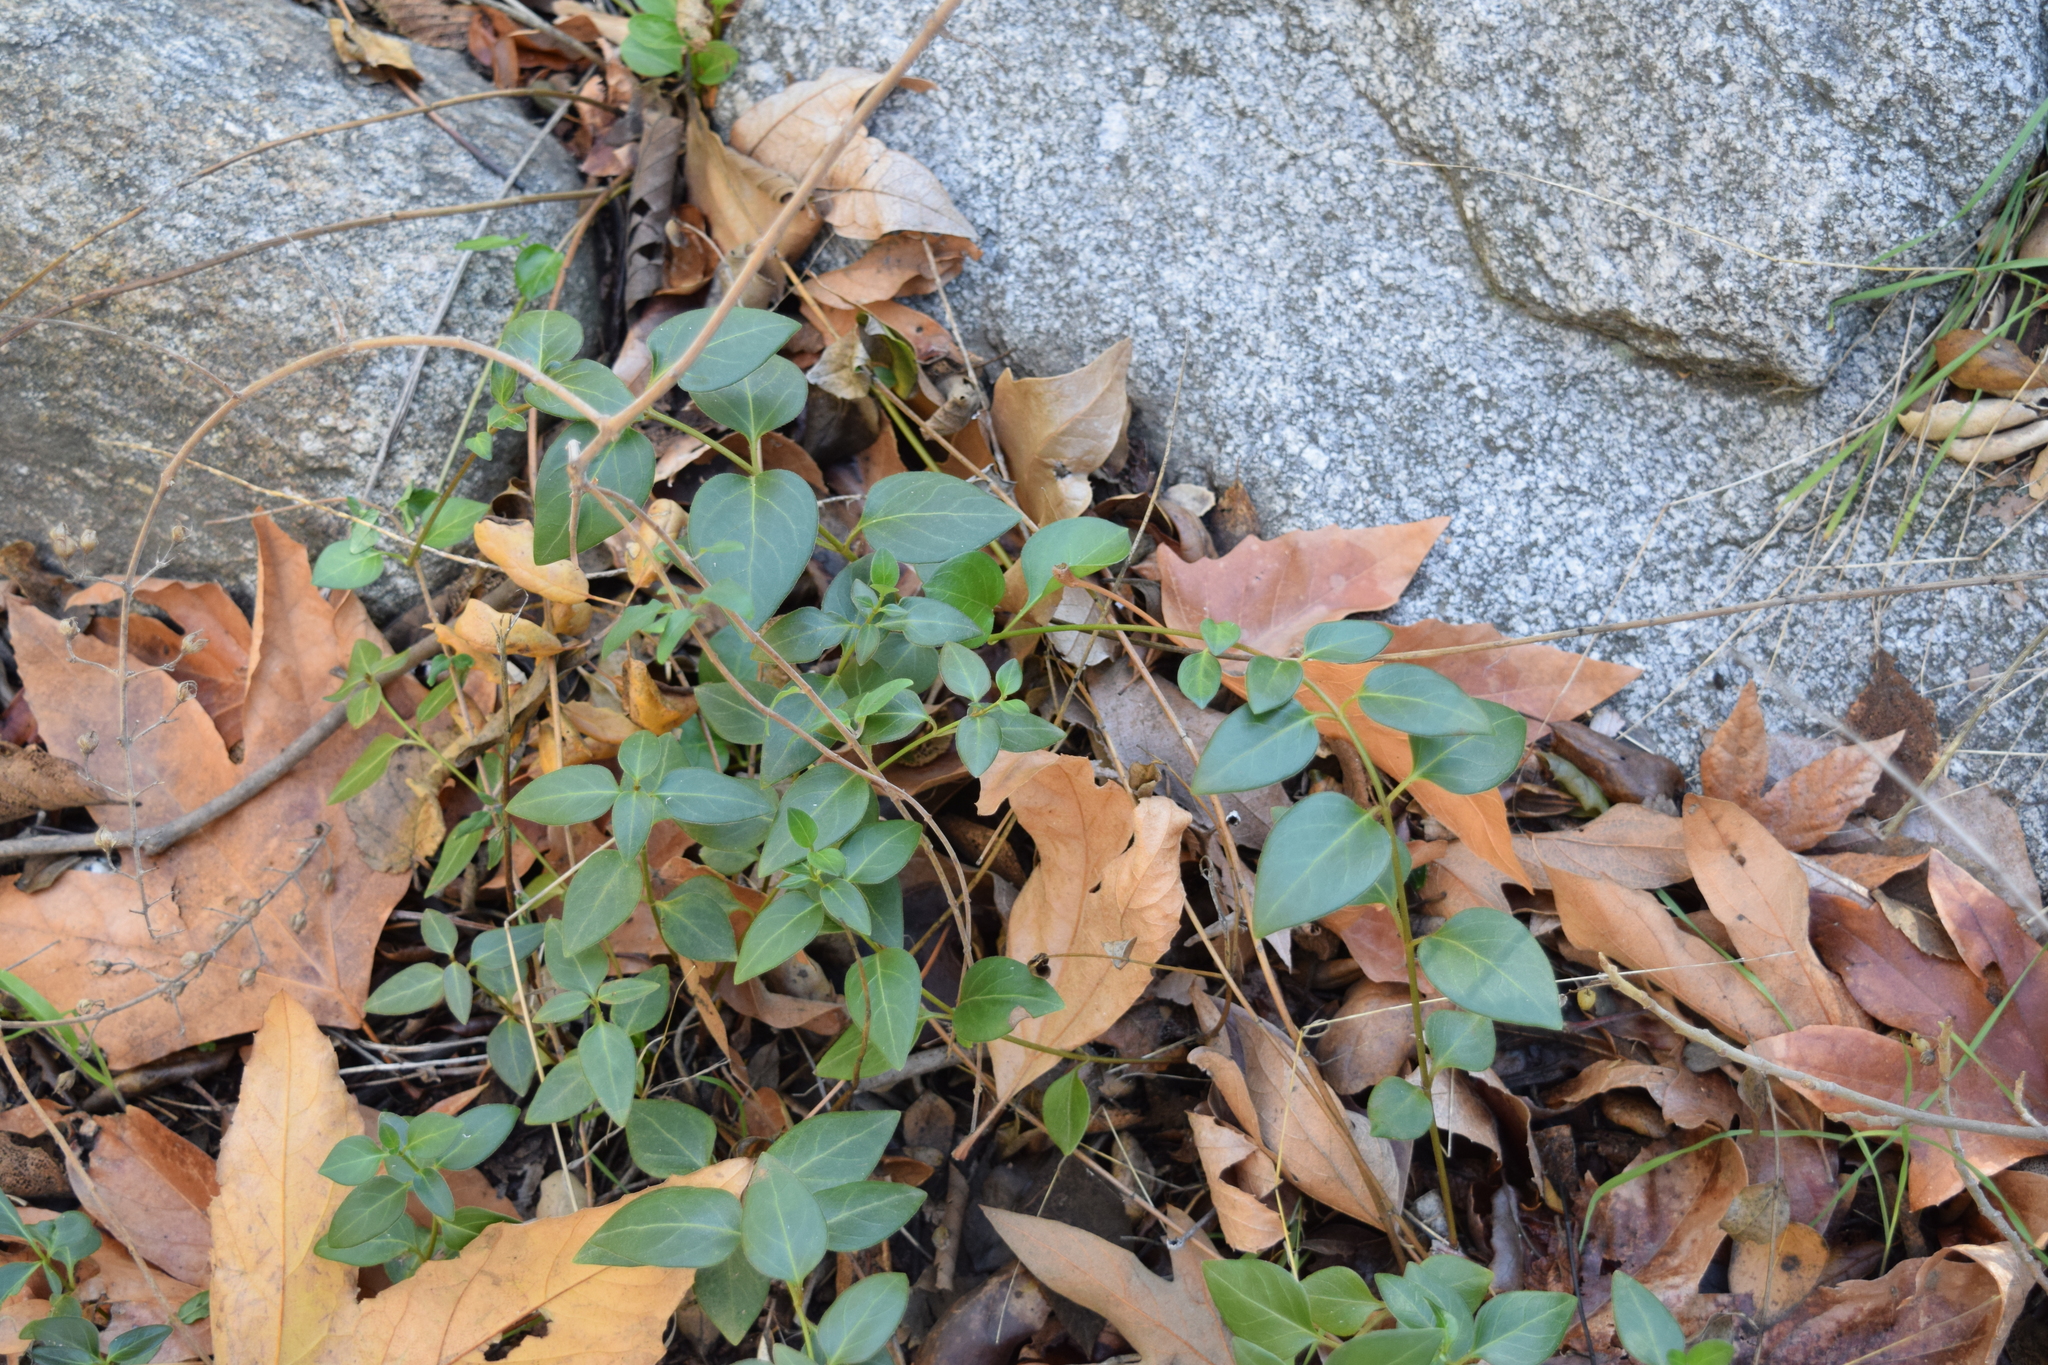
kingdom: Plantae
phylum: Tracheophyta
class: Magnoliopsida
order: Gentianales
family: Apocynaceae
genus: Vinca
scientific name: Vinca major
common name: Greater periwinkle
